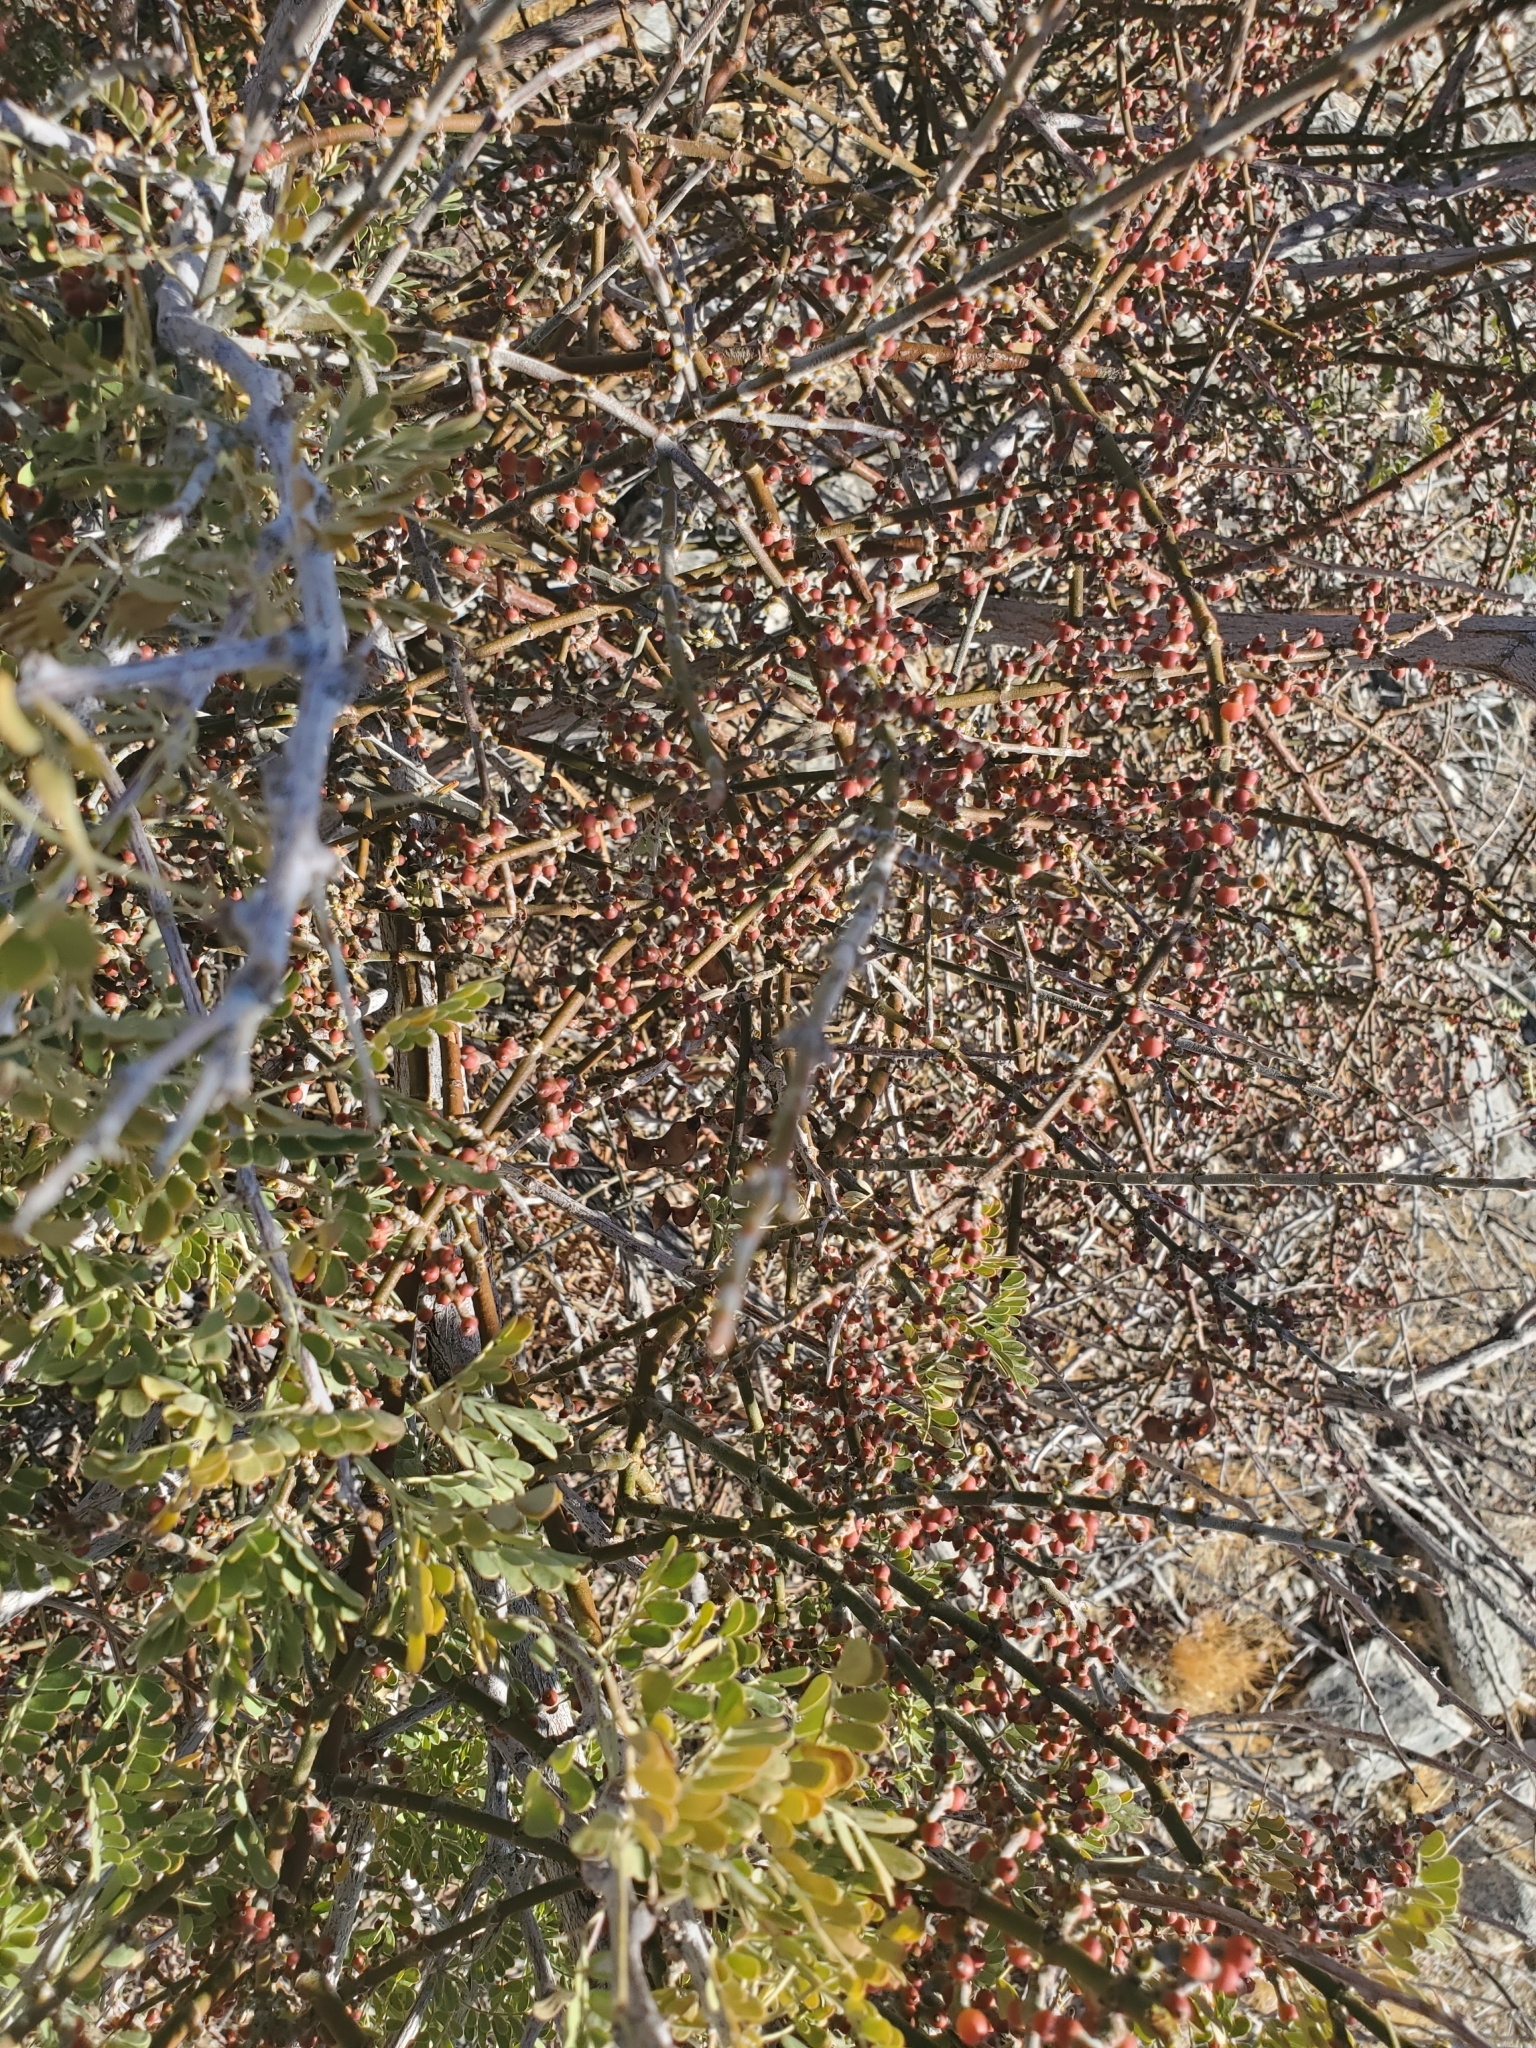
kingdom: Plantae
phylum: Tracheophyta
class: Magnoliopsida
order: Santalales
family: Viscaceae
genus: Phoradendron
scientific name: Phoradendron californicum
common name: Acacia mistletoe
